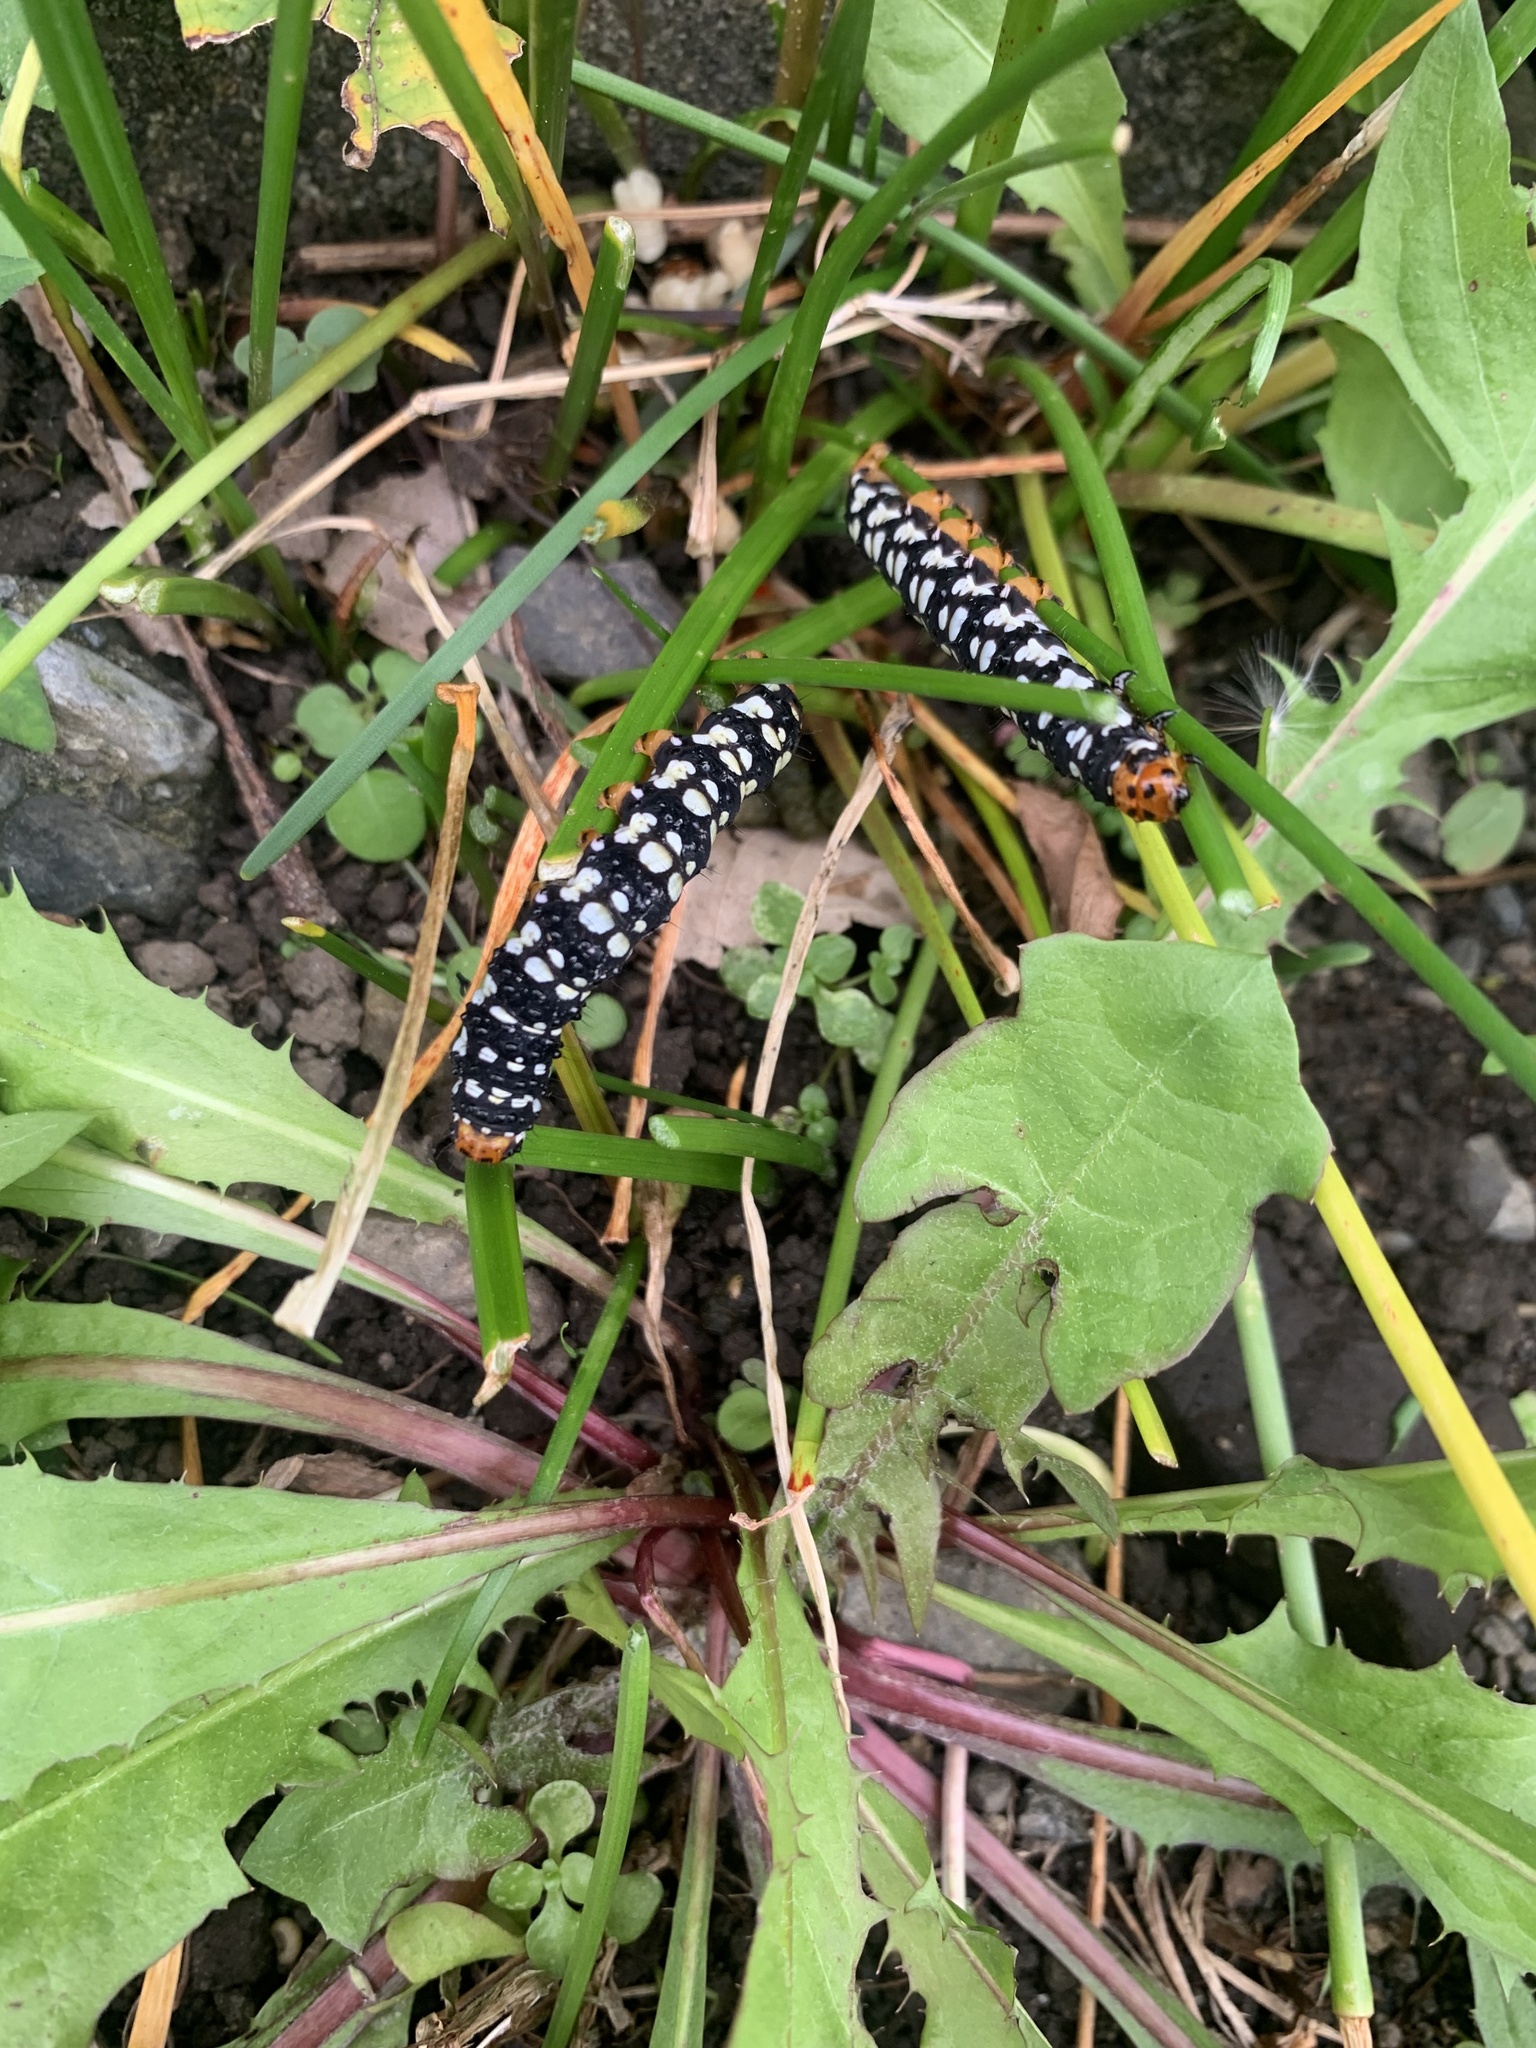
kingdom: Animalia
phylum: Arthropoda
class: Insecta
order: Lepidoptera
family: Noctuidae
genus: Brithys
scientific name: Brithys crini
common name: Kew arches
